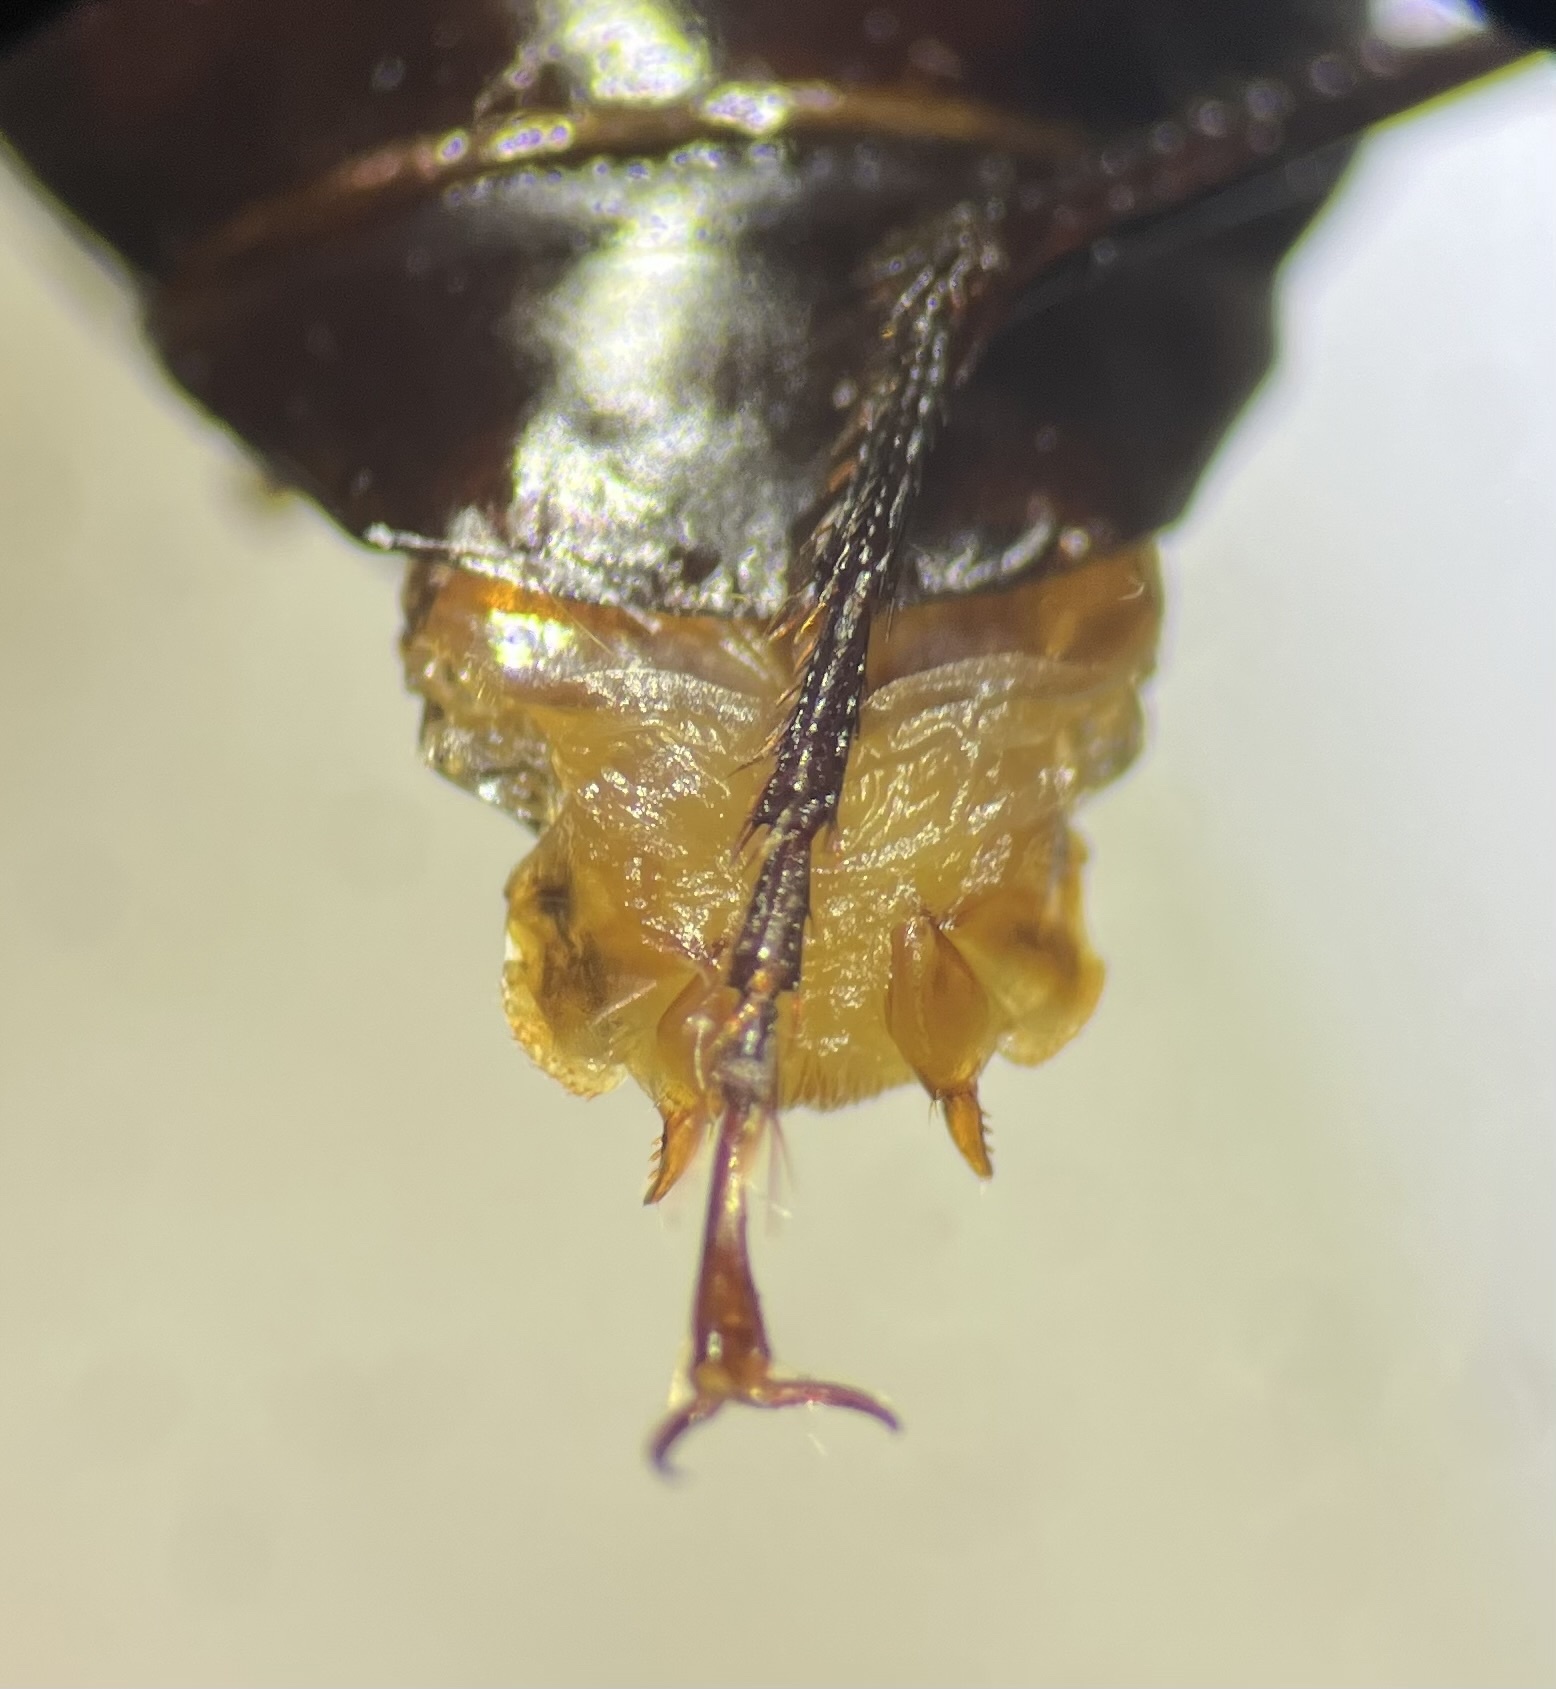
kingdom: Animalia
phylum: Arthropoda
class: Insecta
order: Coleoptera
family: Carabidae
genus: Platynus
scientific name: Platynus decentis
